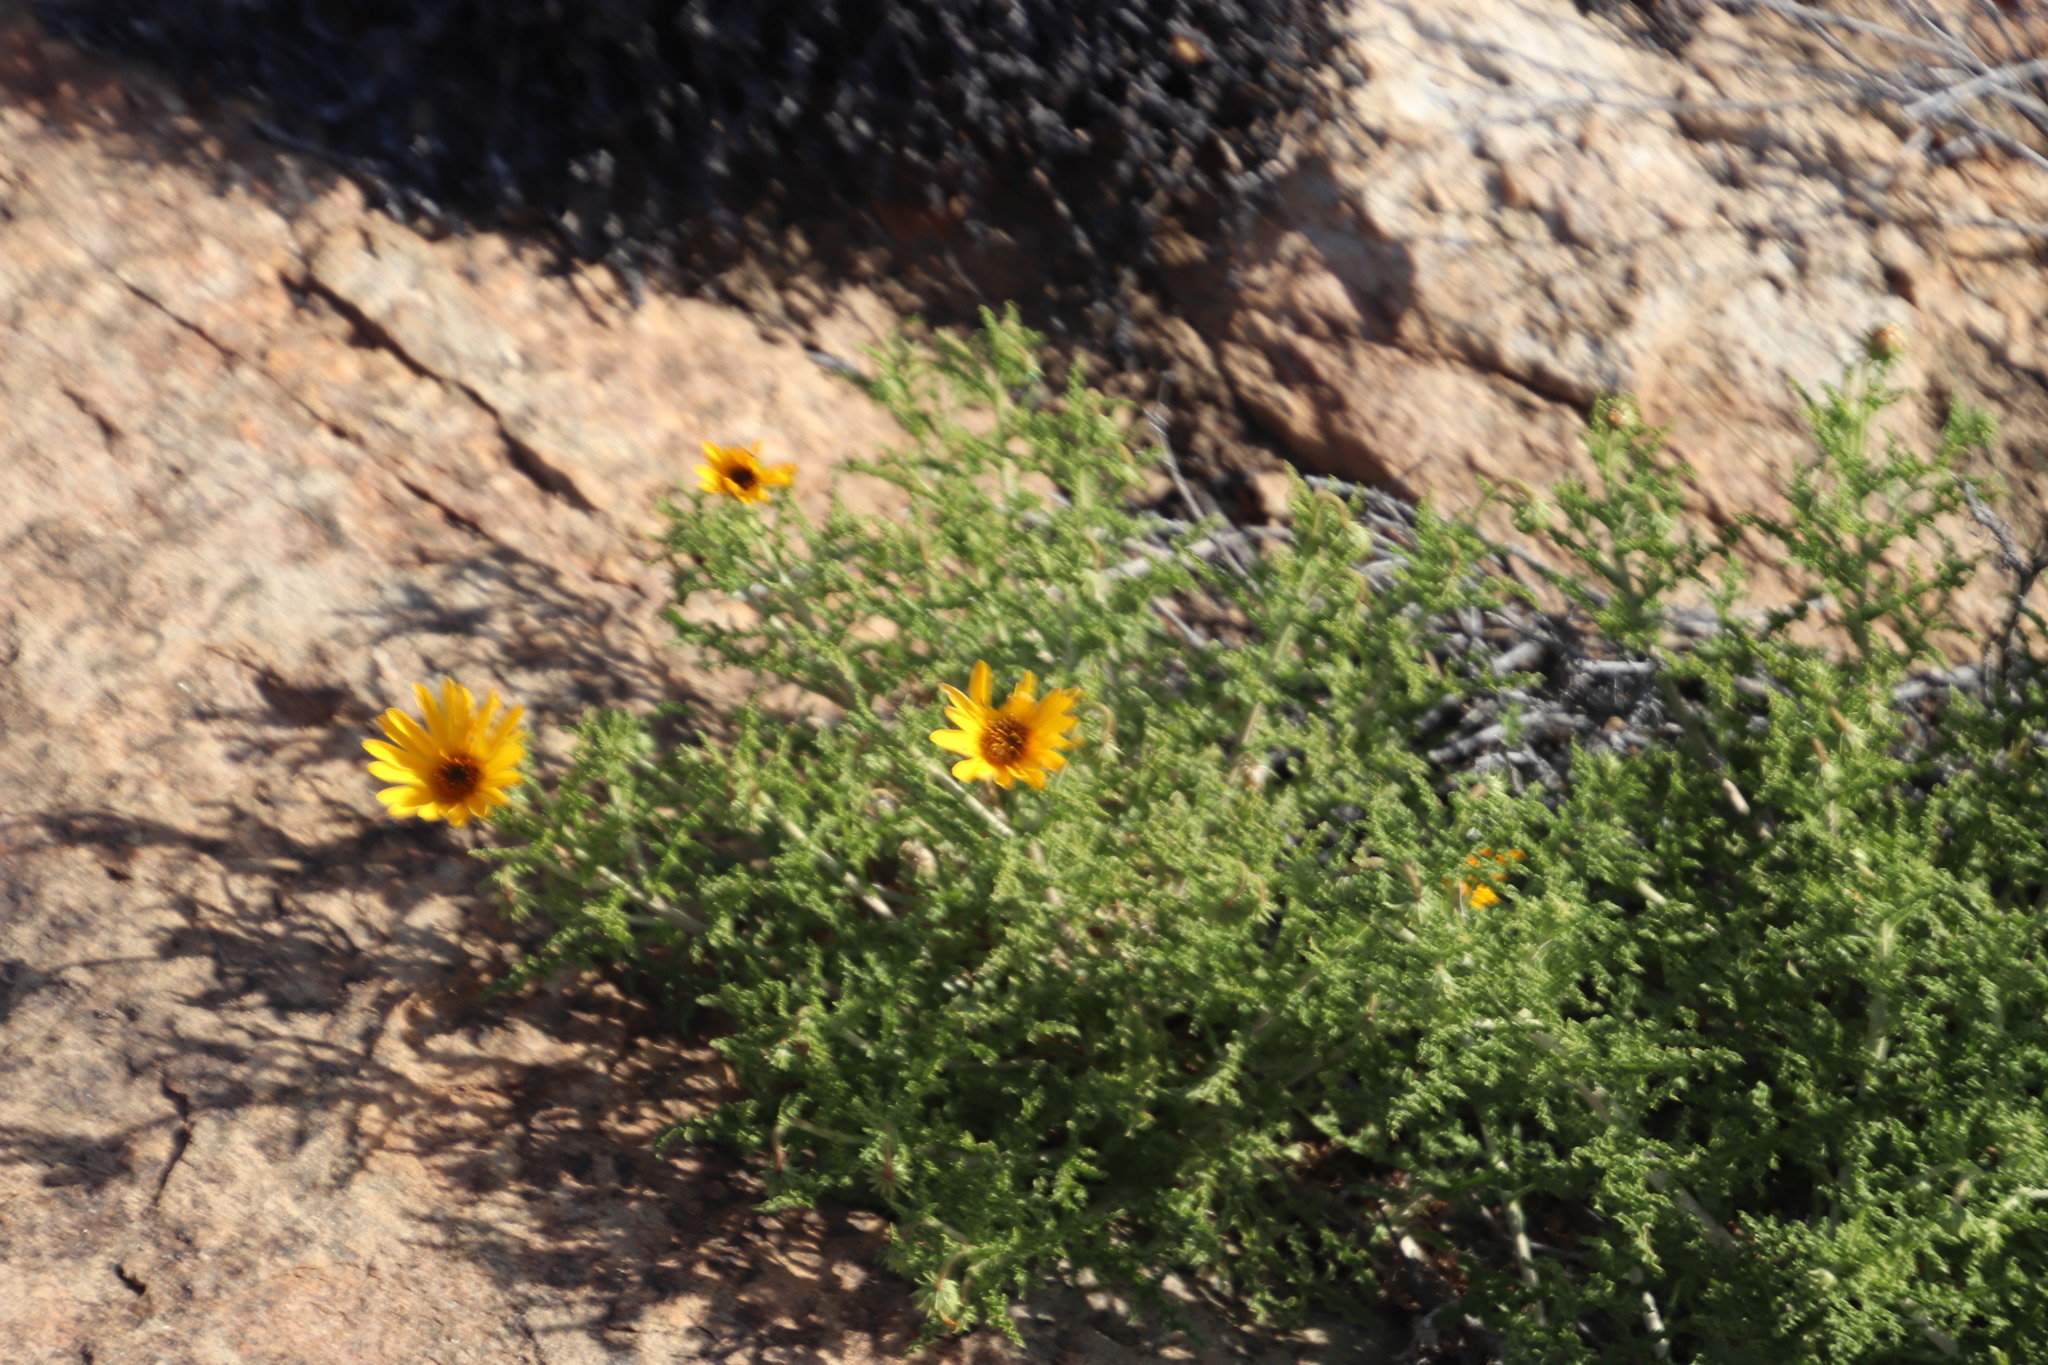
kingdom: Plantae
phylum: Tracheophyta
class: Magnoliopsida
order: Asterales
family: Asteraceae
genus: Arctotis
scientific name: Arctotis laciniata
